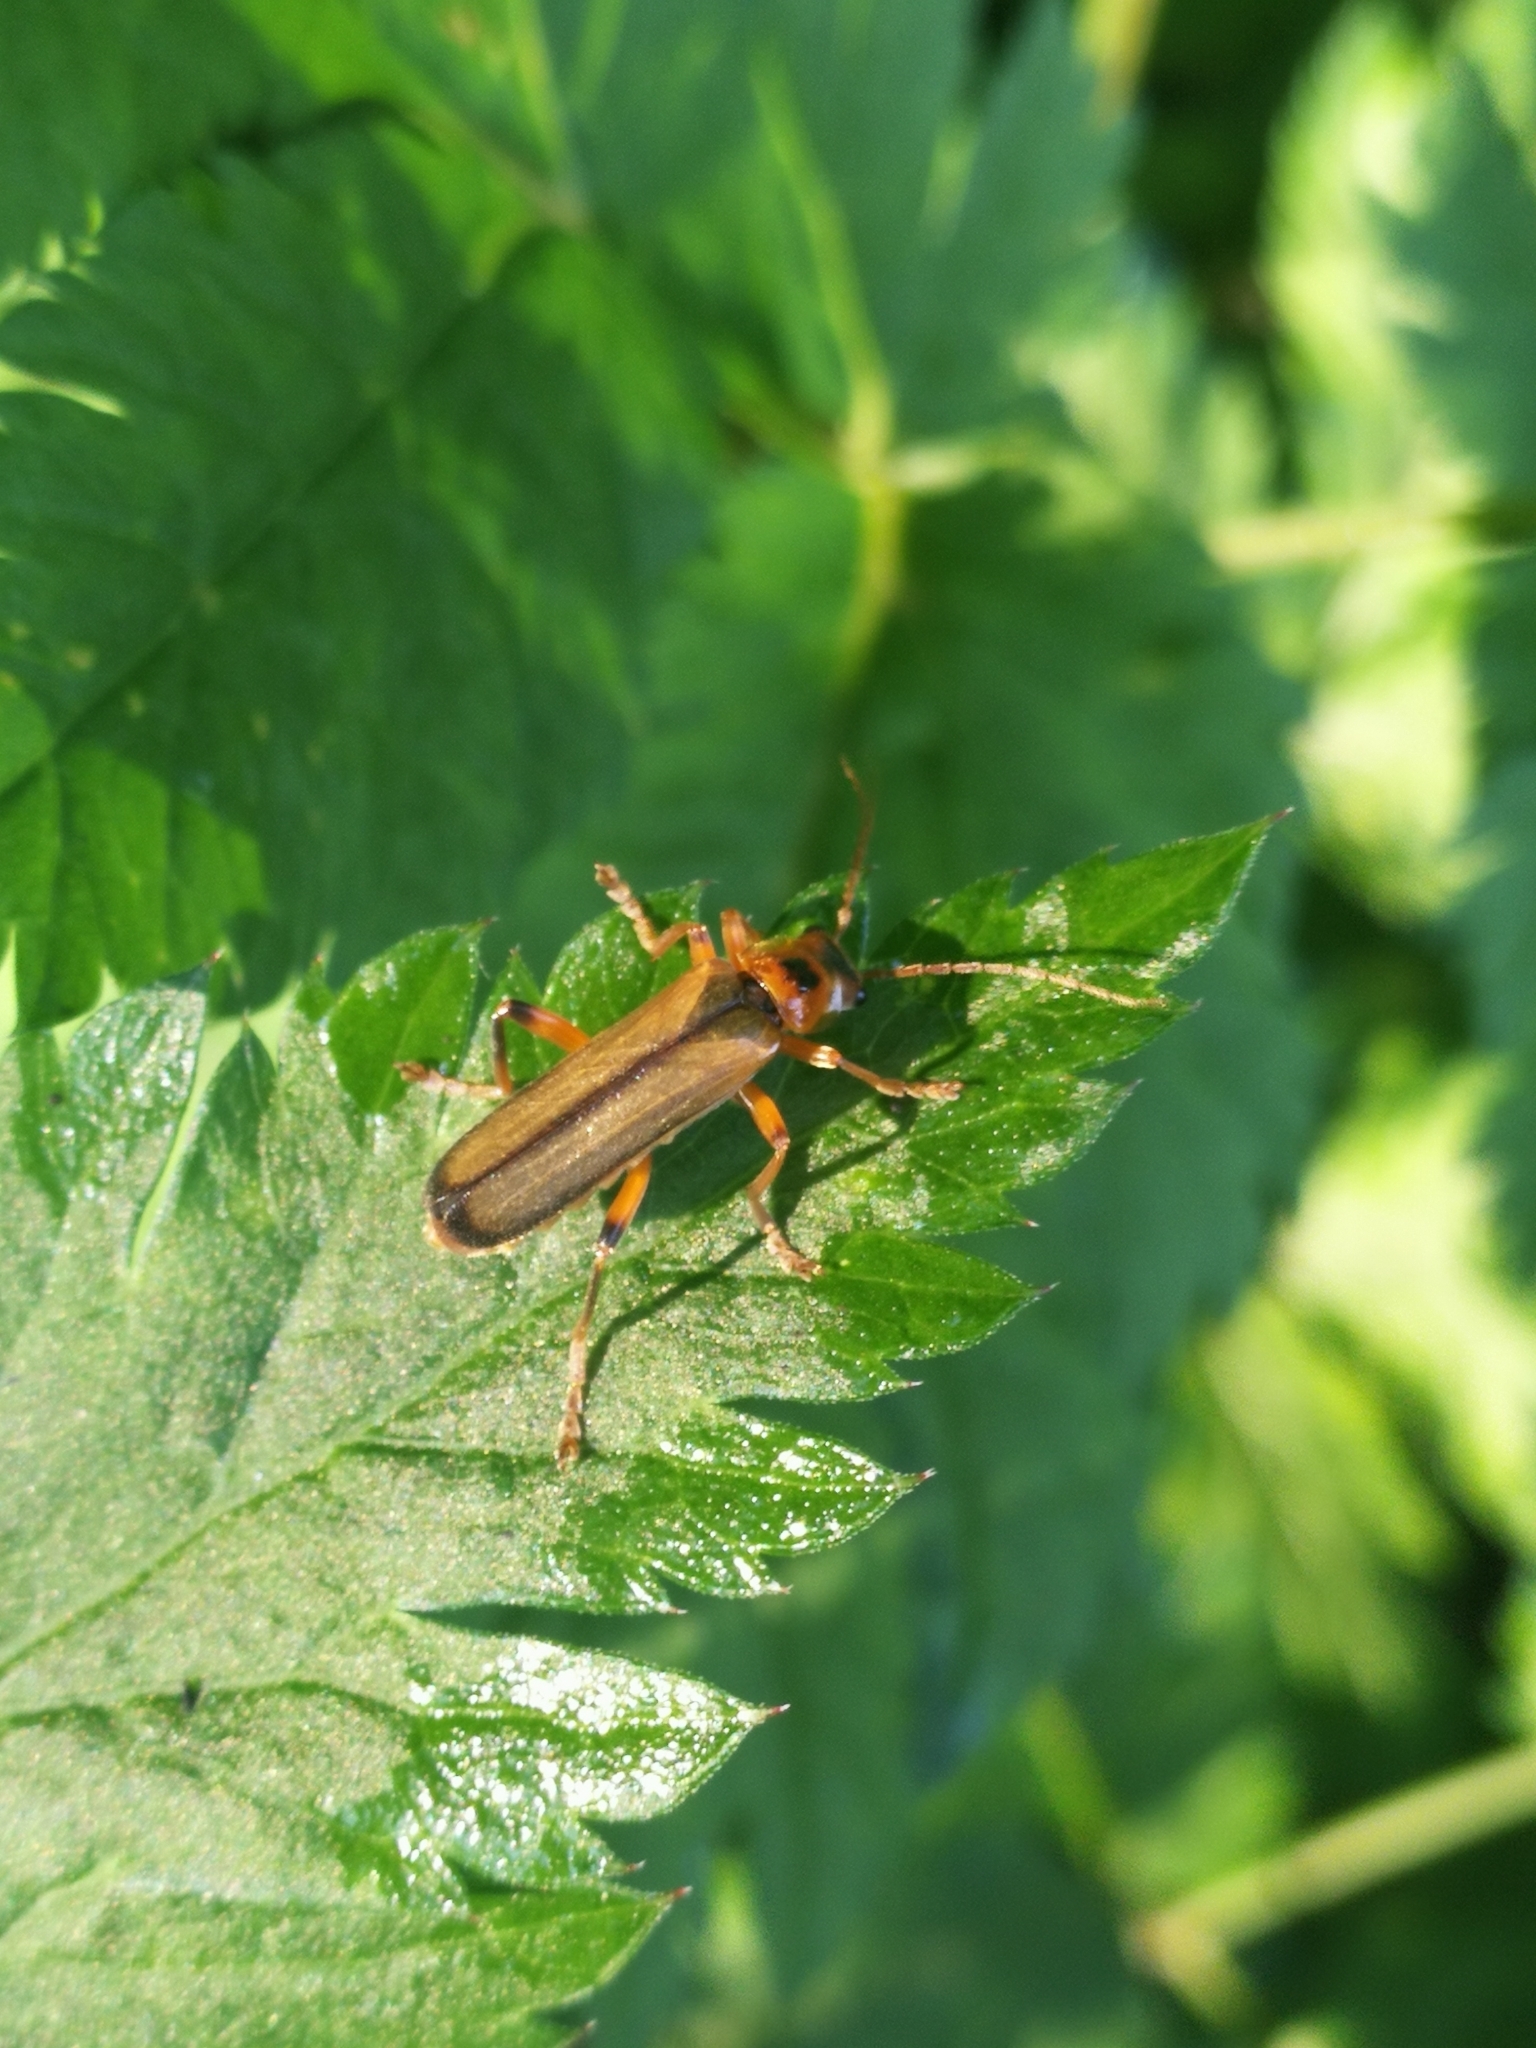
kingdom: Animalia
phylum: Arthropoda
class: Insecta
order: Coleoptera
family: Cantharidae
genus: Metacantharis
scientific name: Metacantharis discoidea
